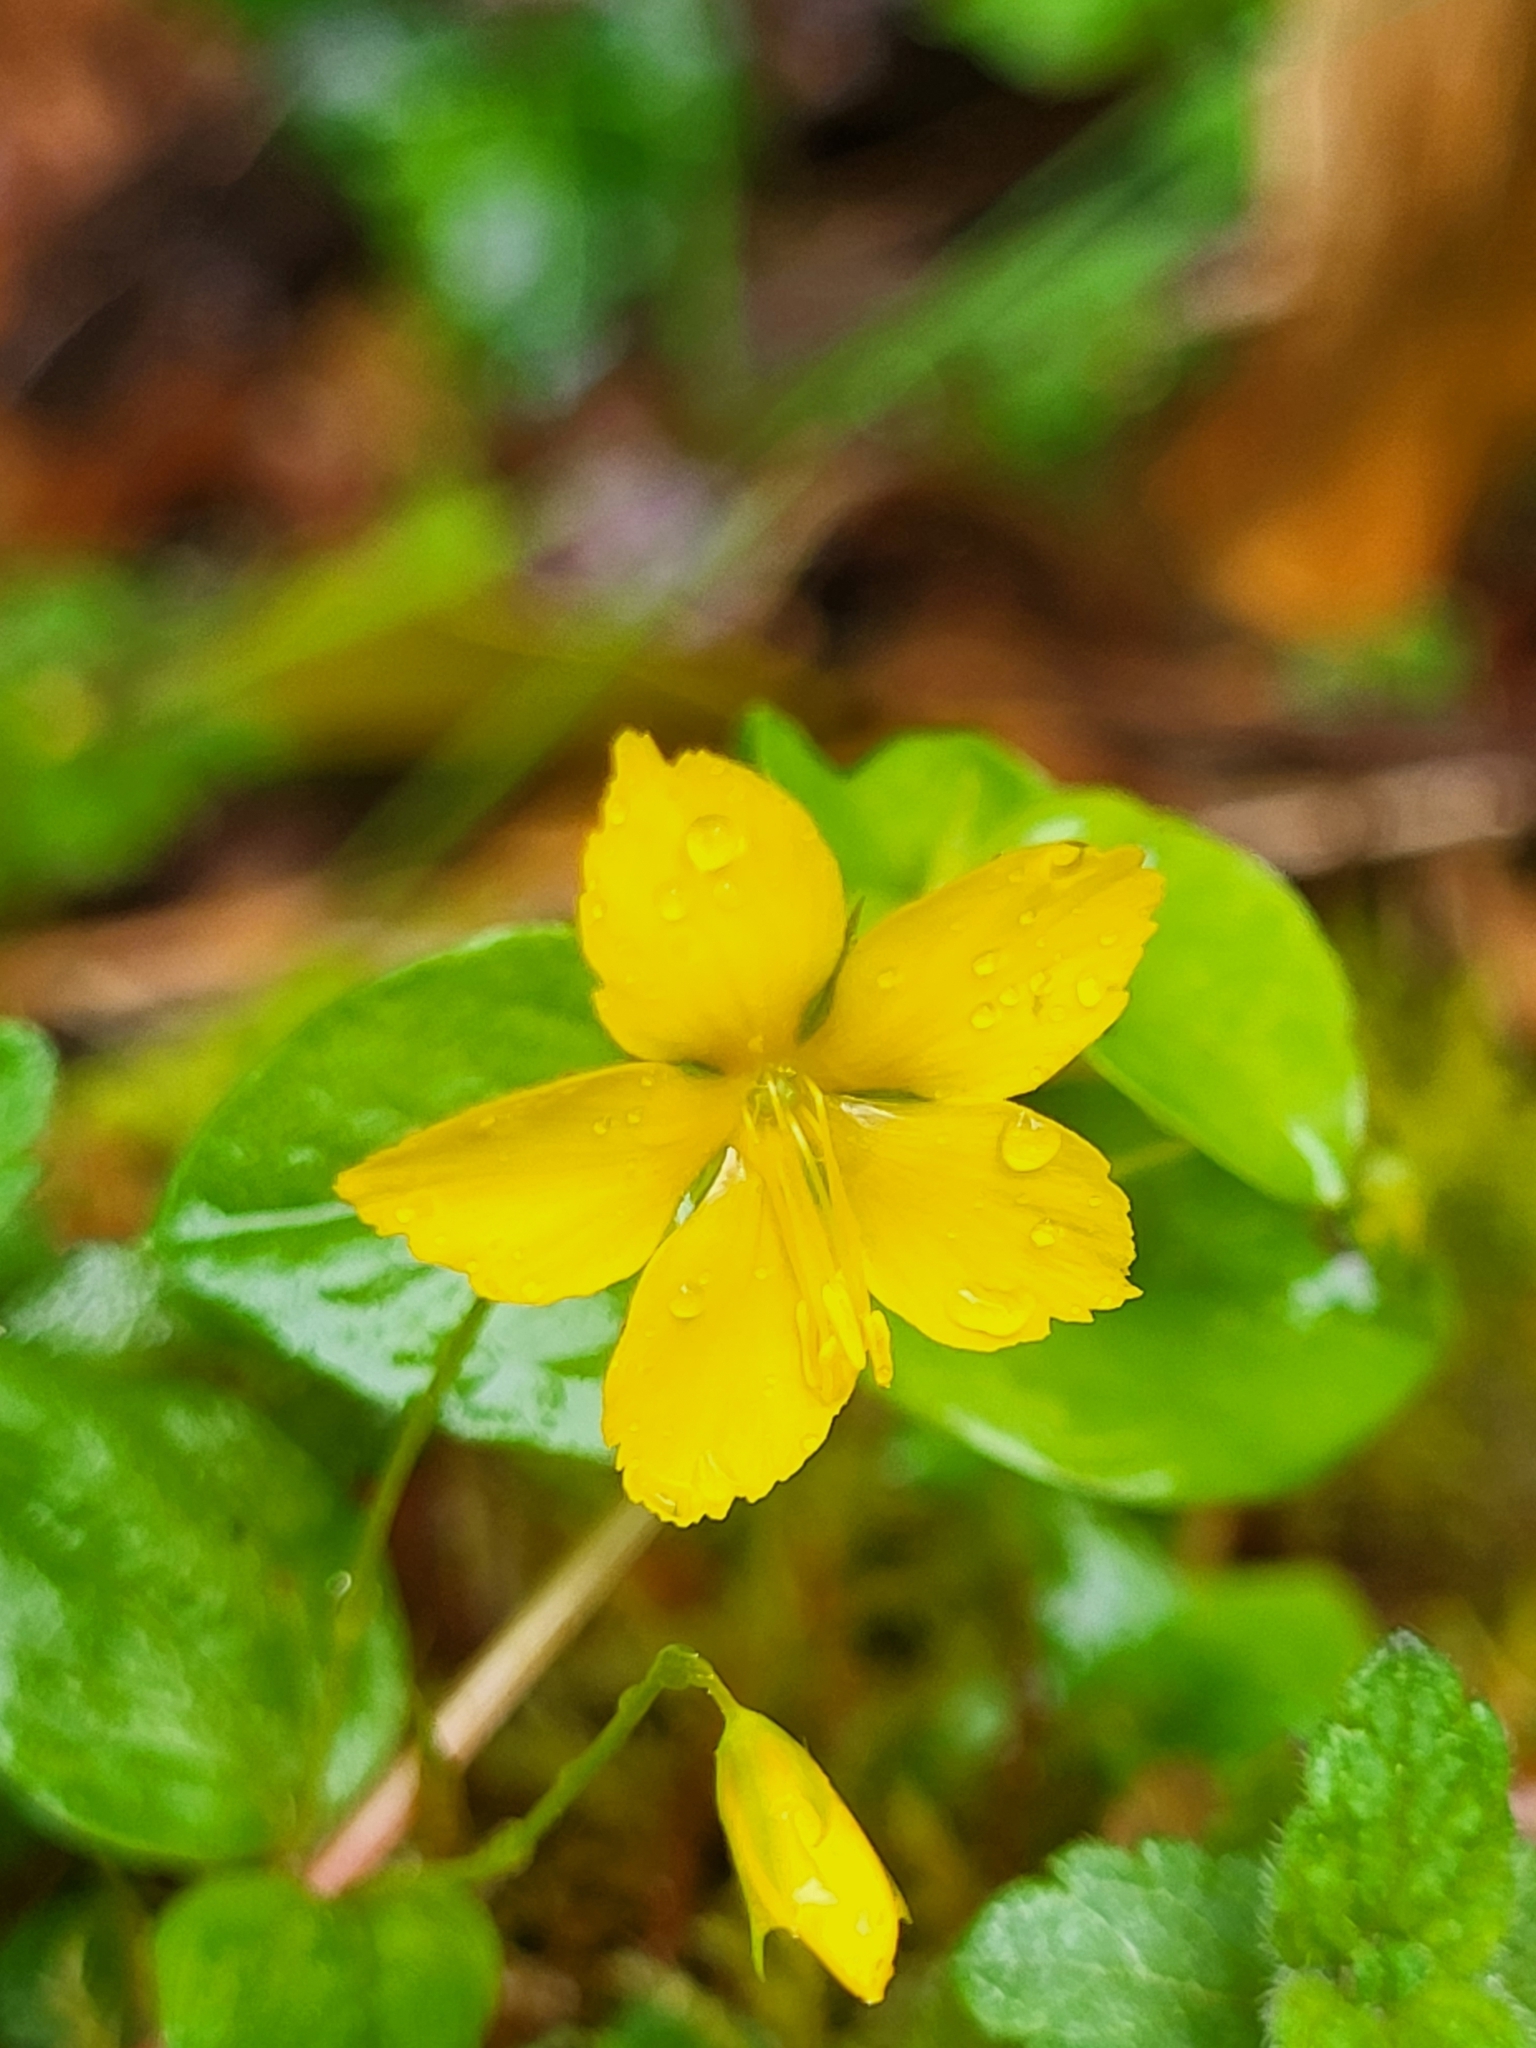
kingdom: Plantae
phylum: Tracheophyta
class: Magnoliopsida
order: Ericales
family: Primulaceae
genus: Lysimachia
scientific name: Lysimachia nemorum
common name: Yellow pimpernel
